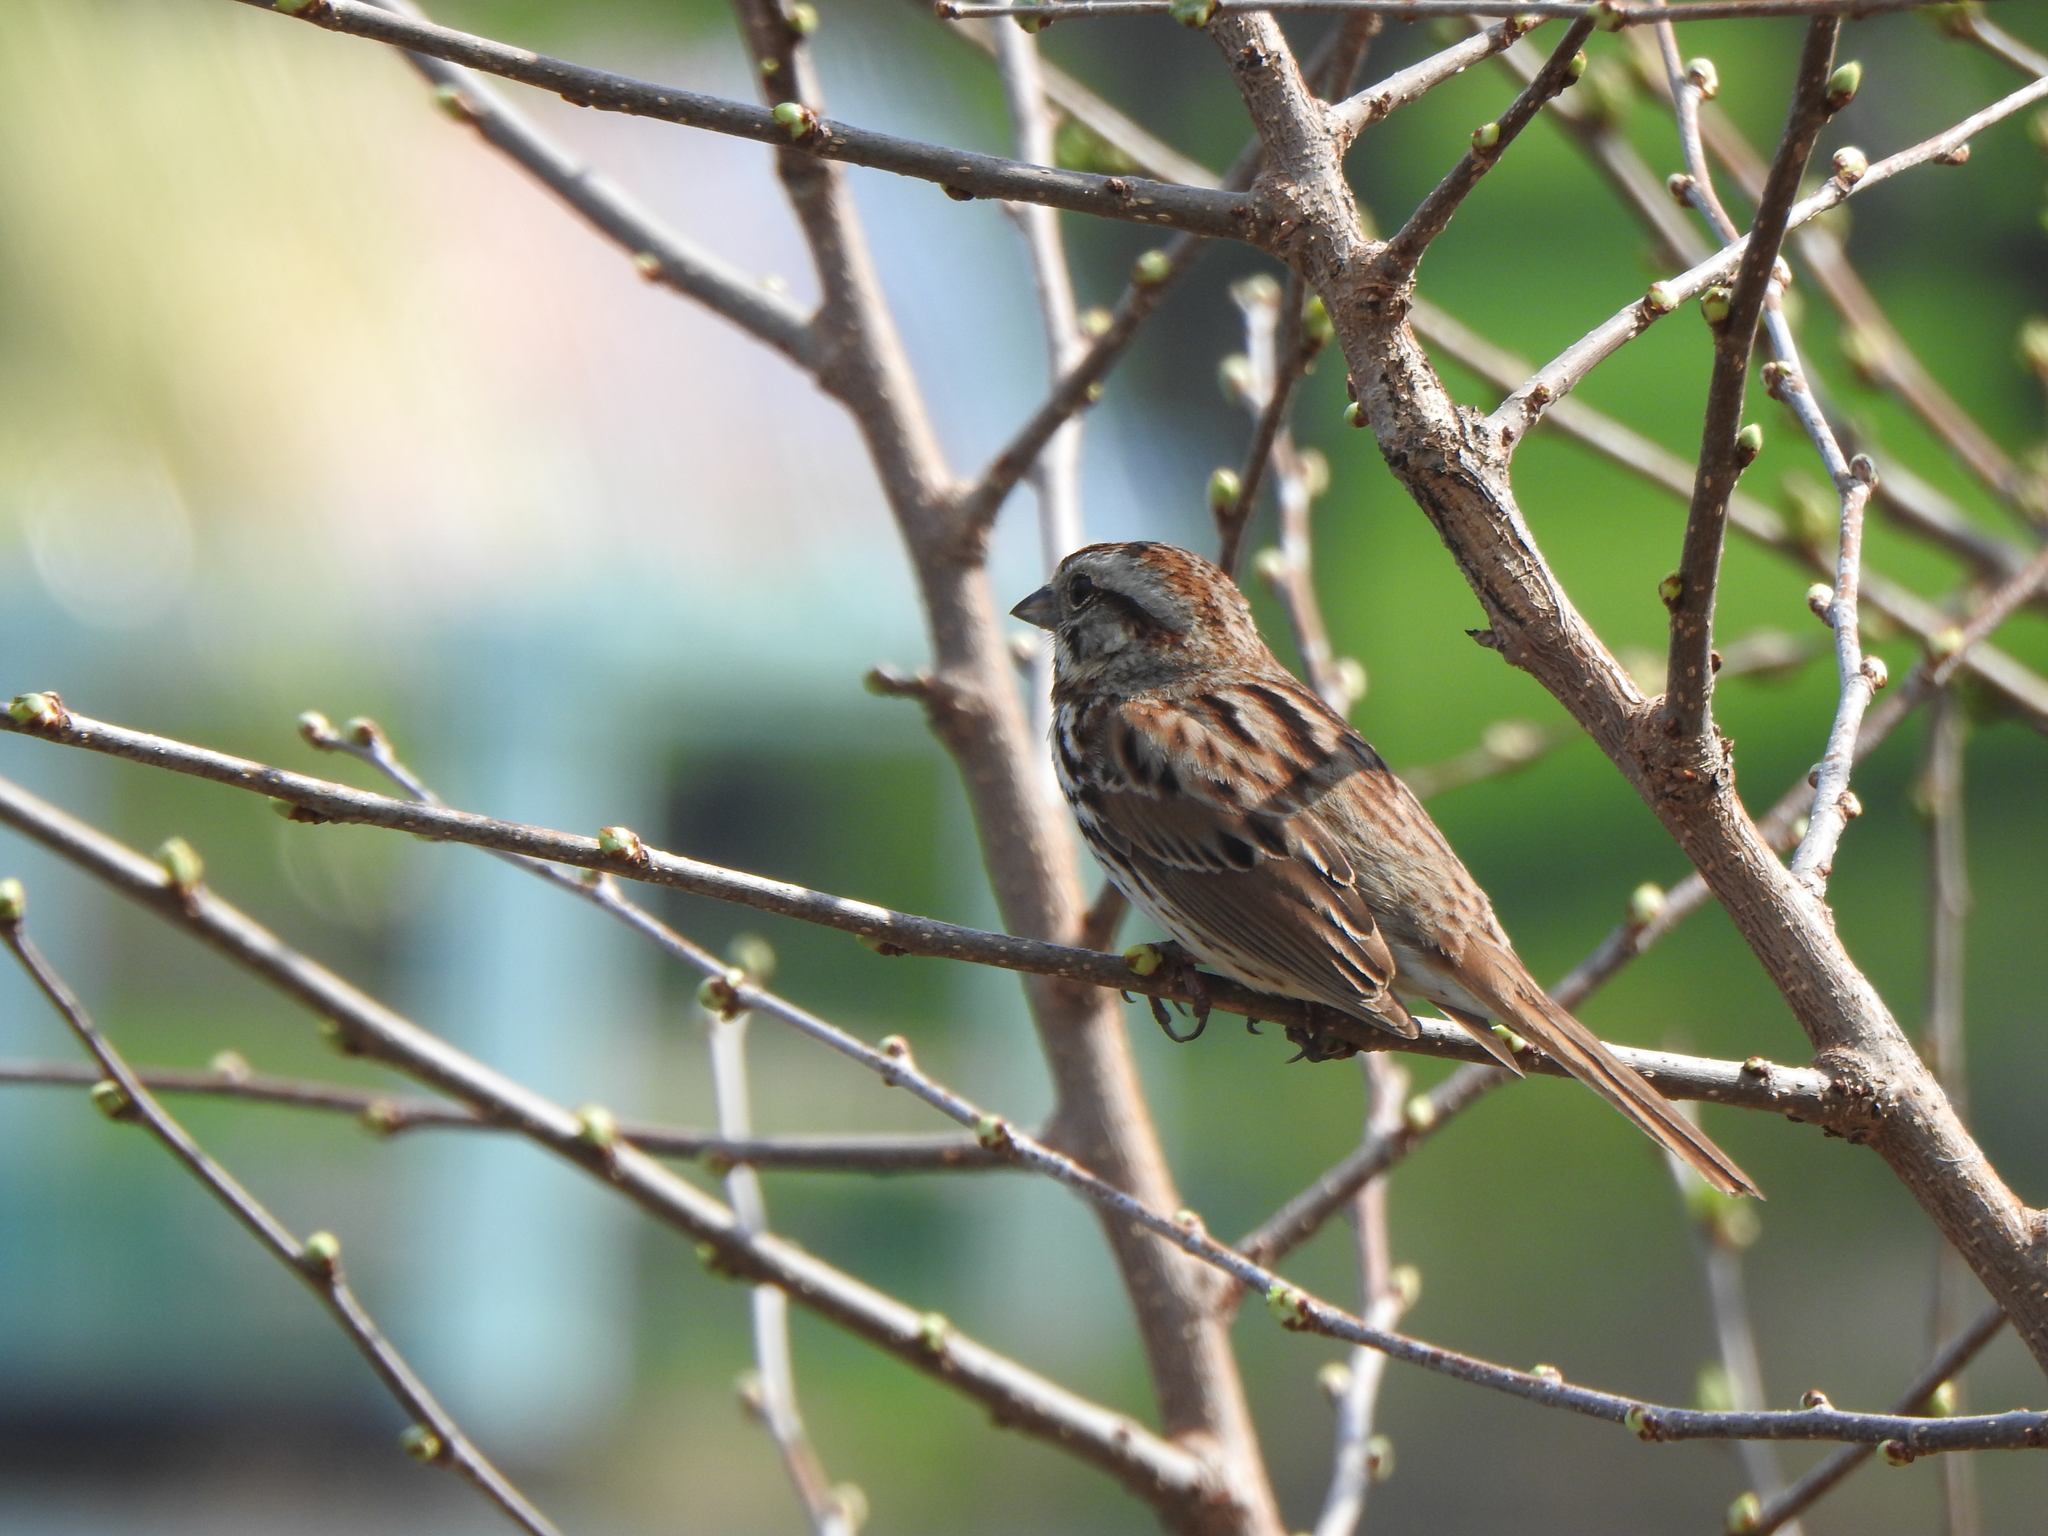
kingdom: Animalia
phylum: Chordata
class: Aves
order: Passeriformes
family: Passerellidae
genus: Melospiza
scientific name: Melospiza melodia
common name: Song sparrow
